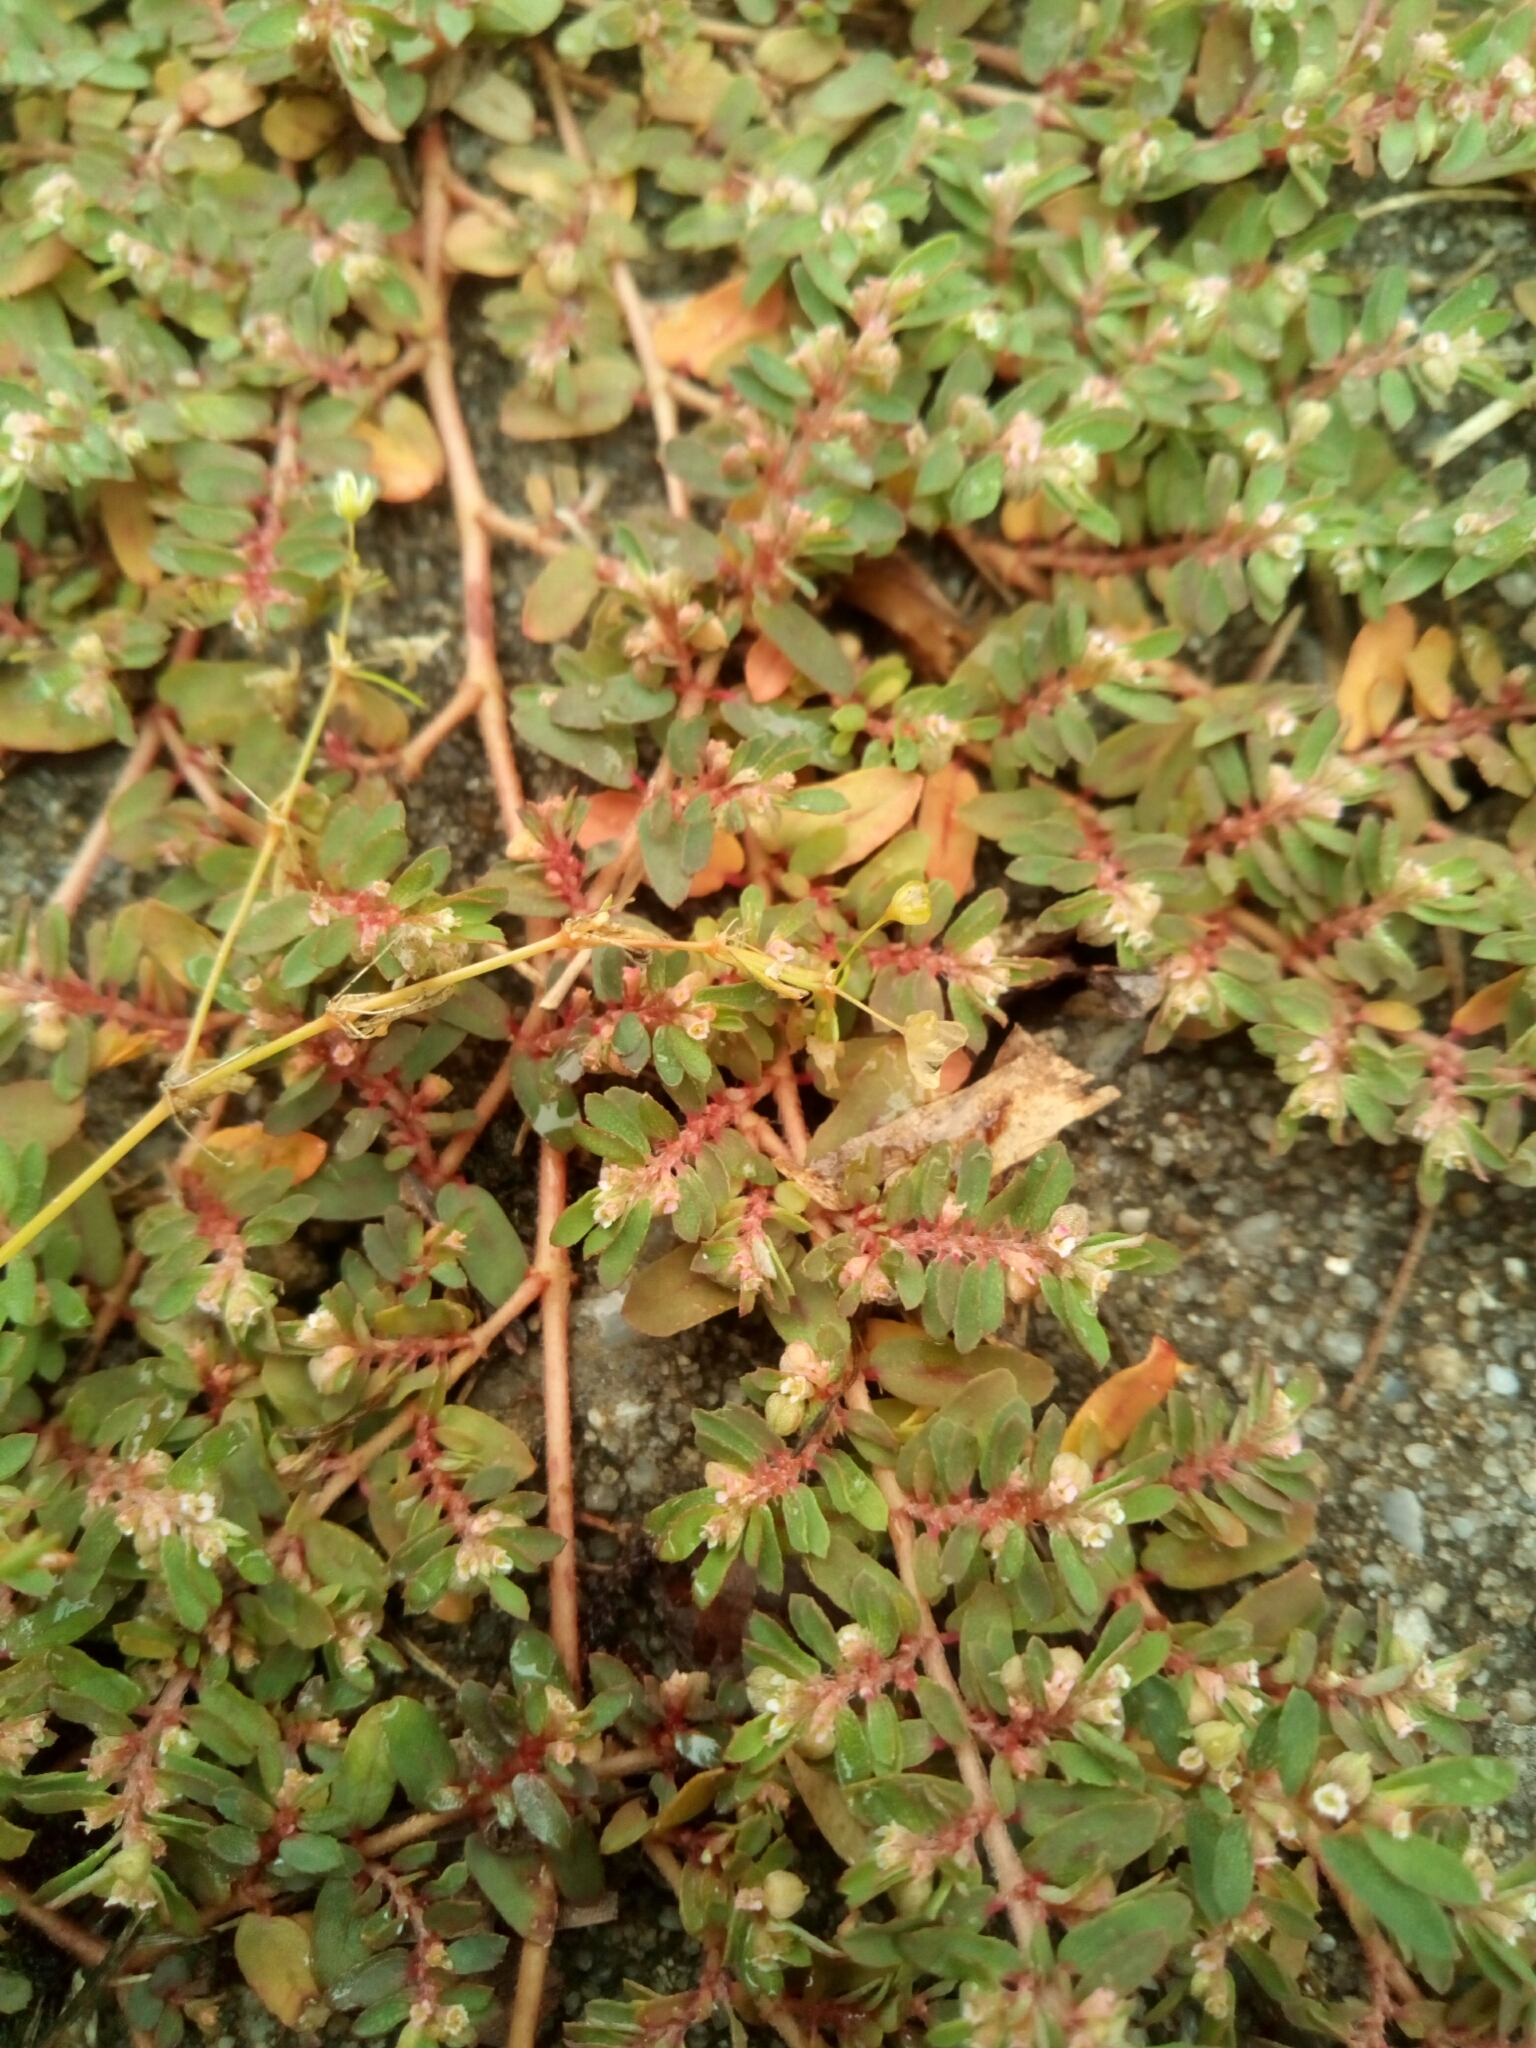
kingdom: Plantae
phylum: Tracheophyta
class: Magnoliopsida
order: Malpighiales
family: Euphorbiaceae
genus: Euphorbia
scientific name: Euphorbia maculata
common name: Spotted spurge
